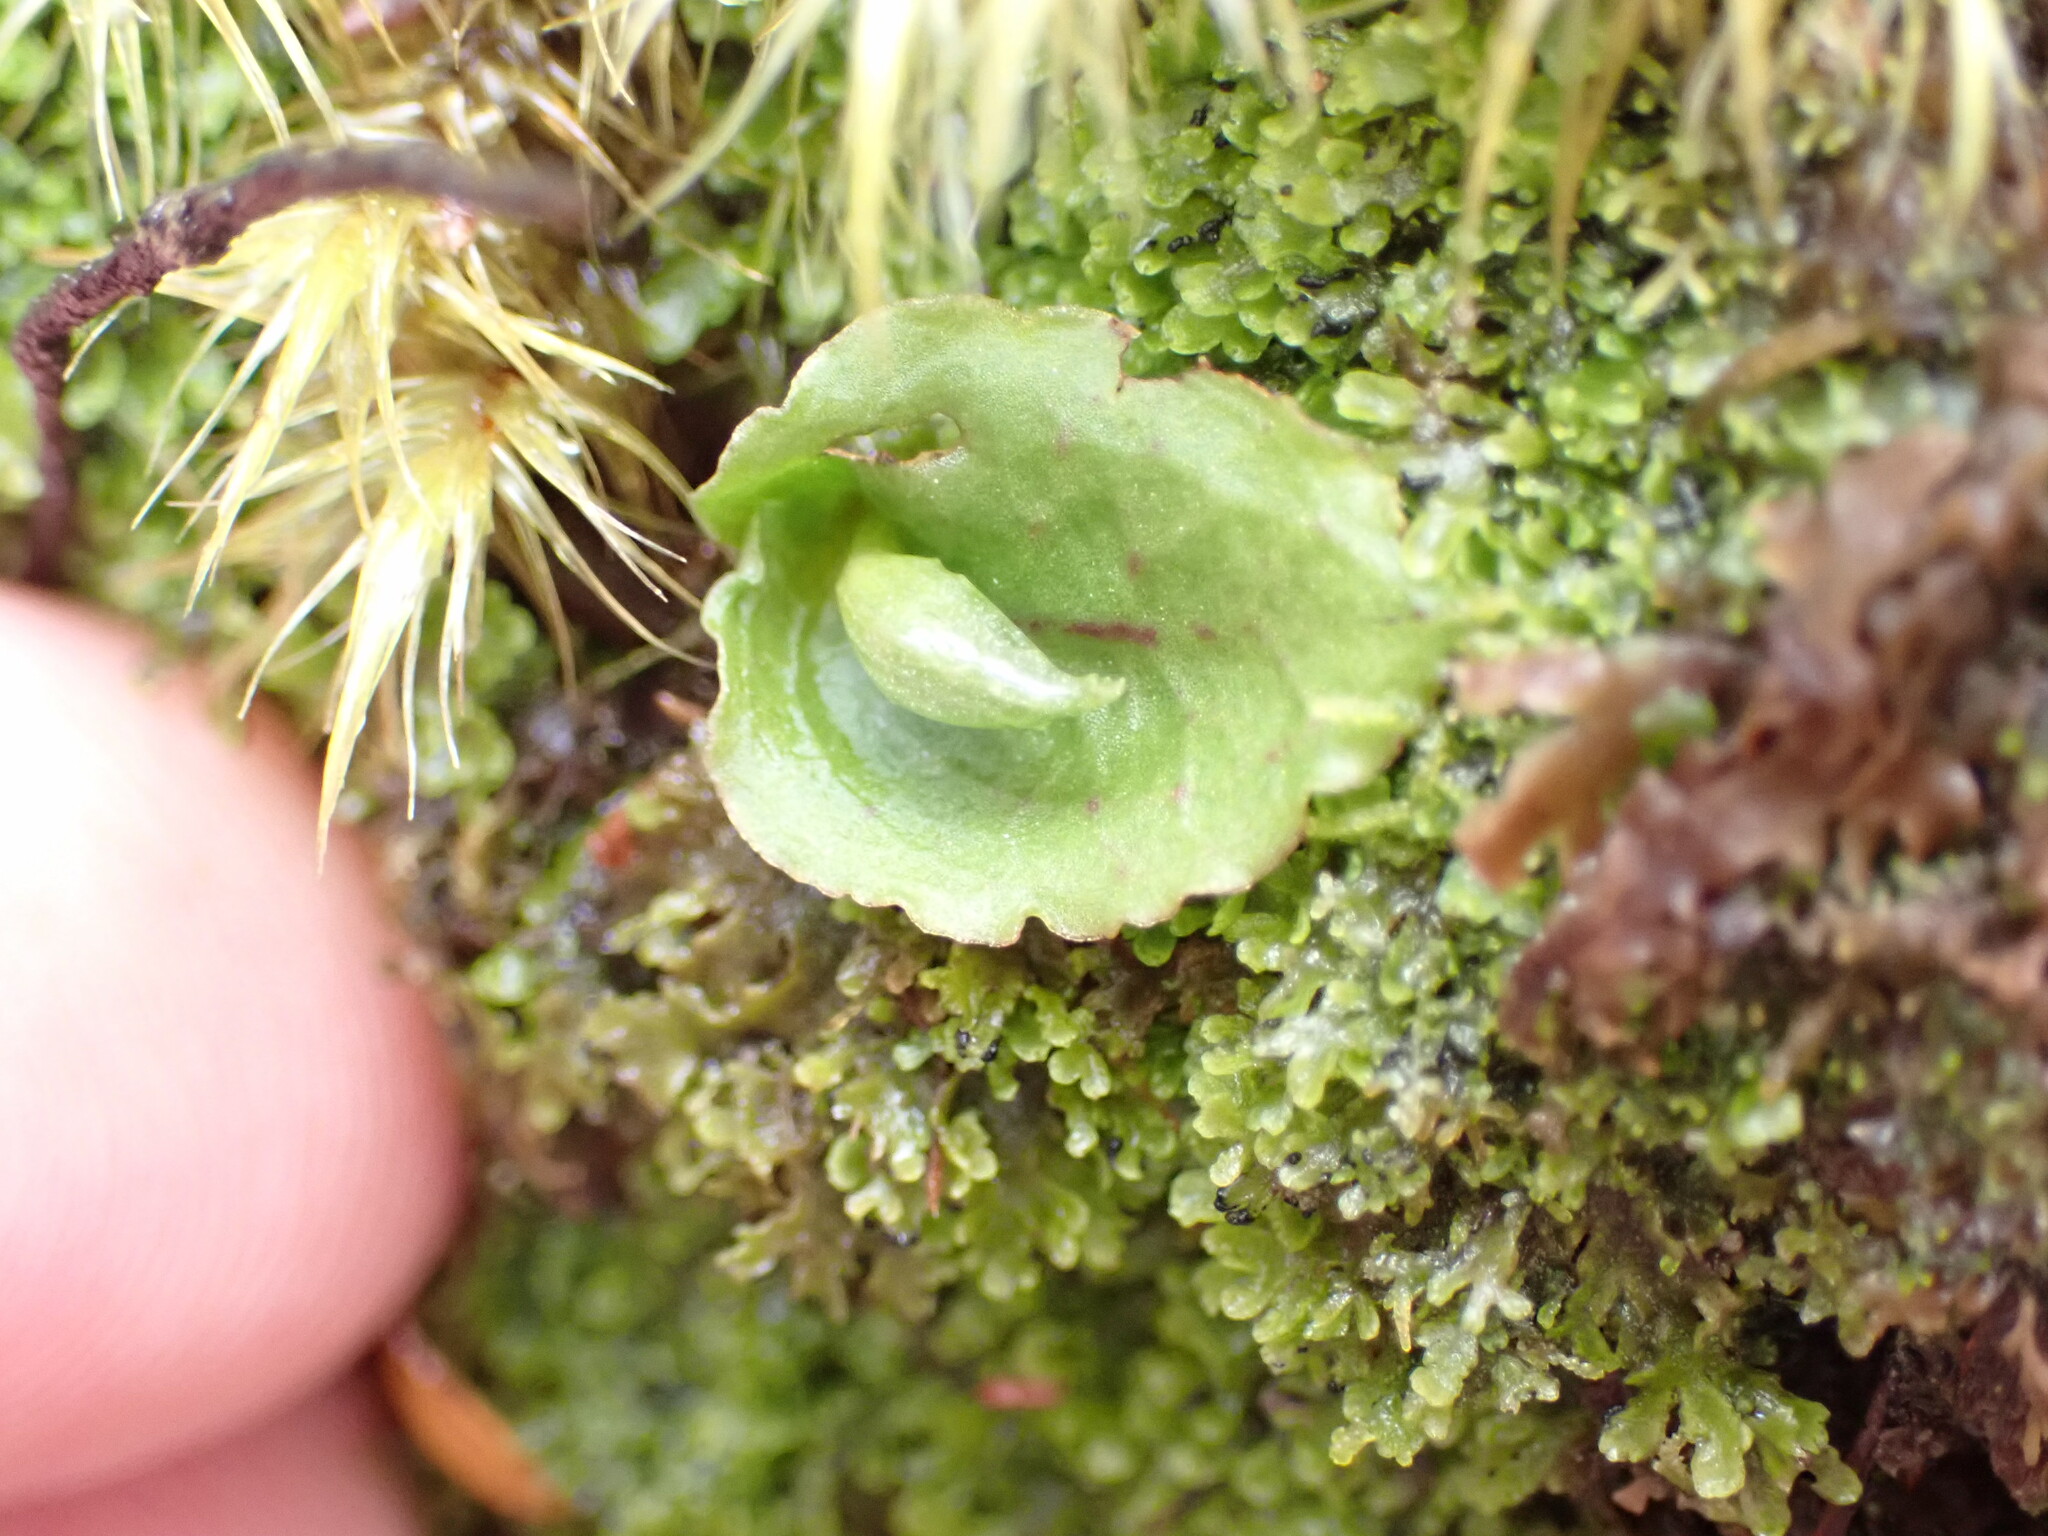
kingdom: Plantae
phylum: Tracheophyta
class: Liliopsida
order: Asparagales
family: Orchidaceae
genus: Corybas
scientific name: Corybas oblongus
